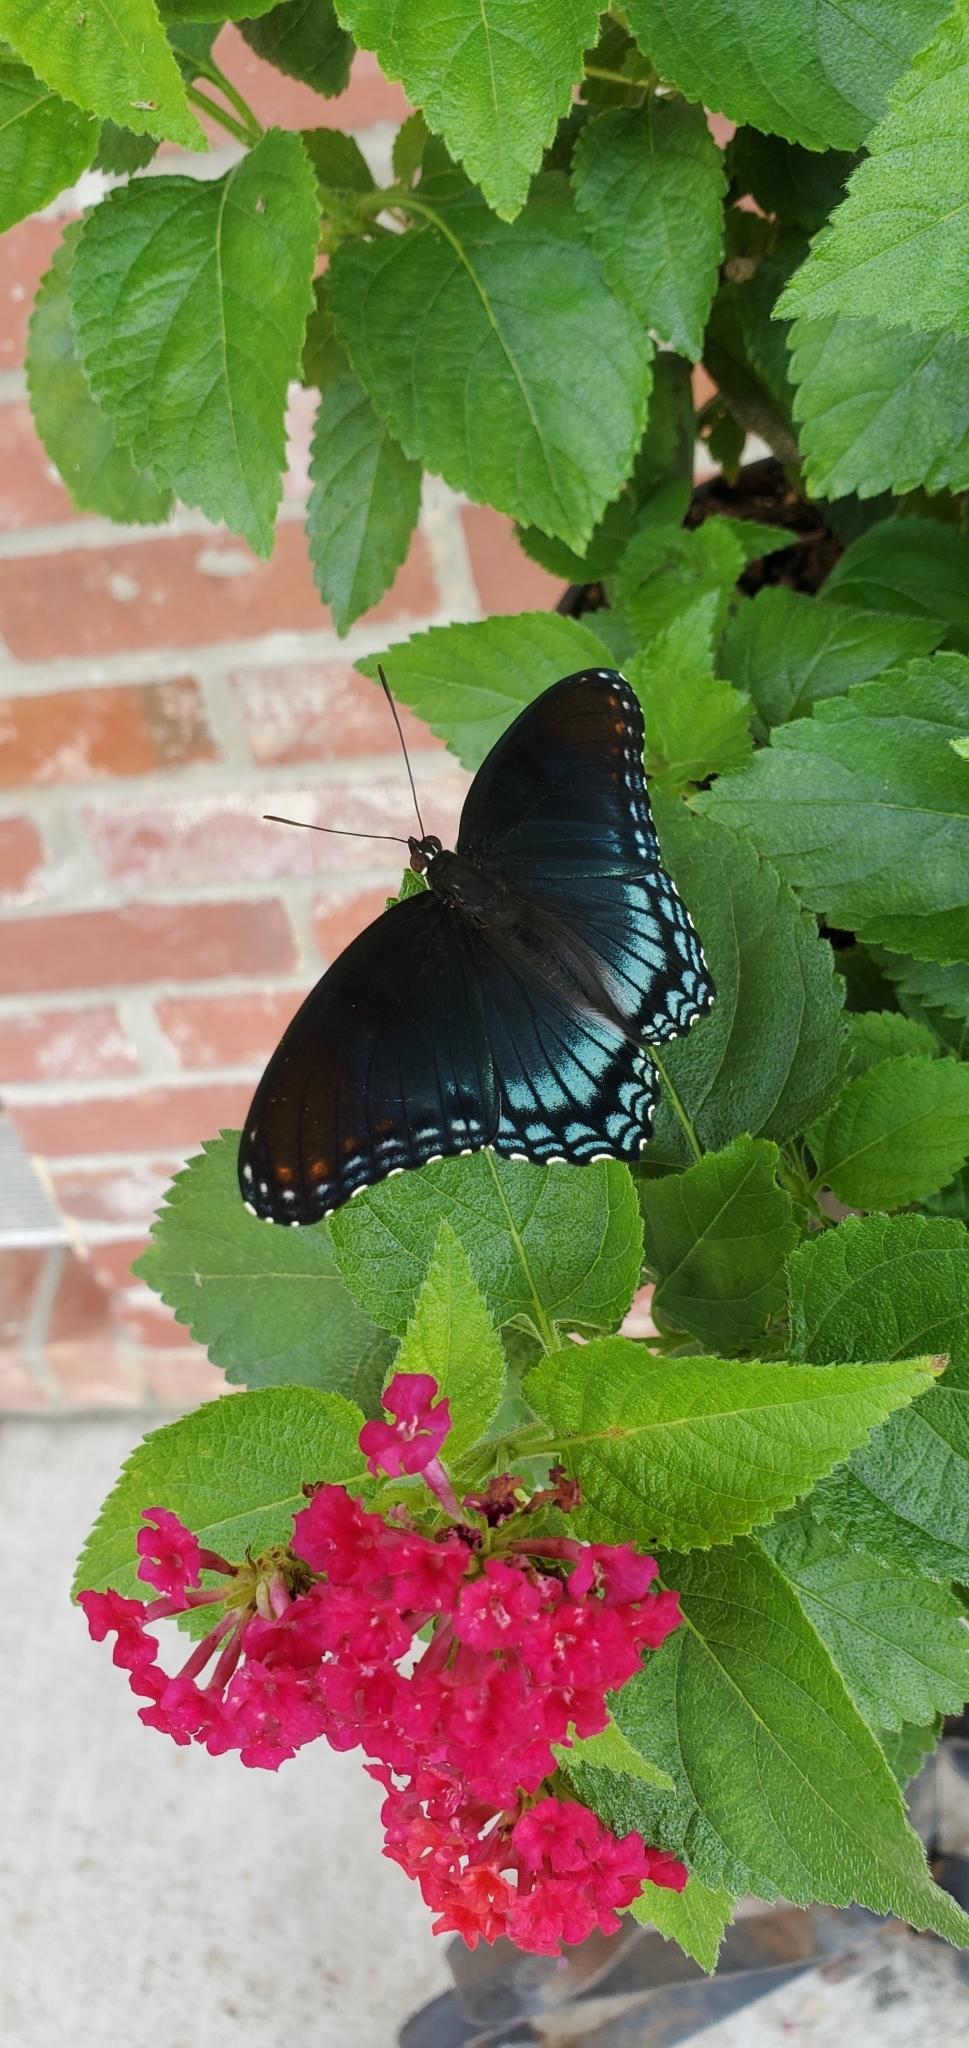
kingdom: Animalia
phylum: Arthropoda
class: Insecta
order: Lepidoptera
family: Nymphalidae
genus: Limenitis
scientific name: Limenitis astyanax
